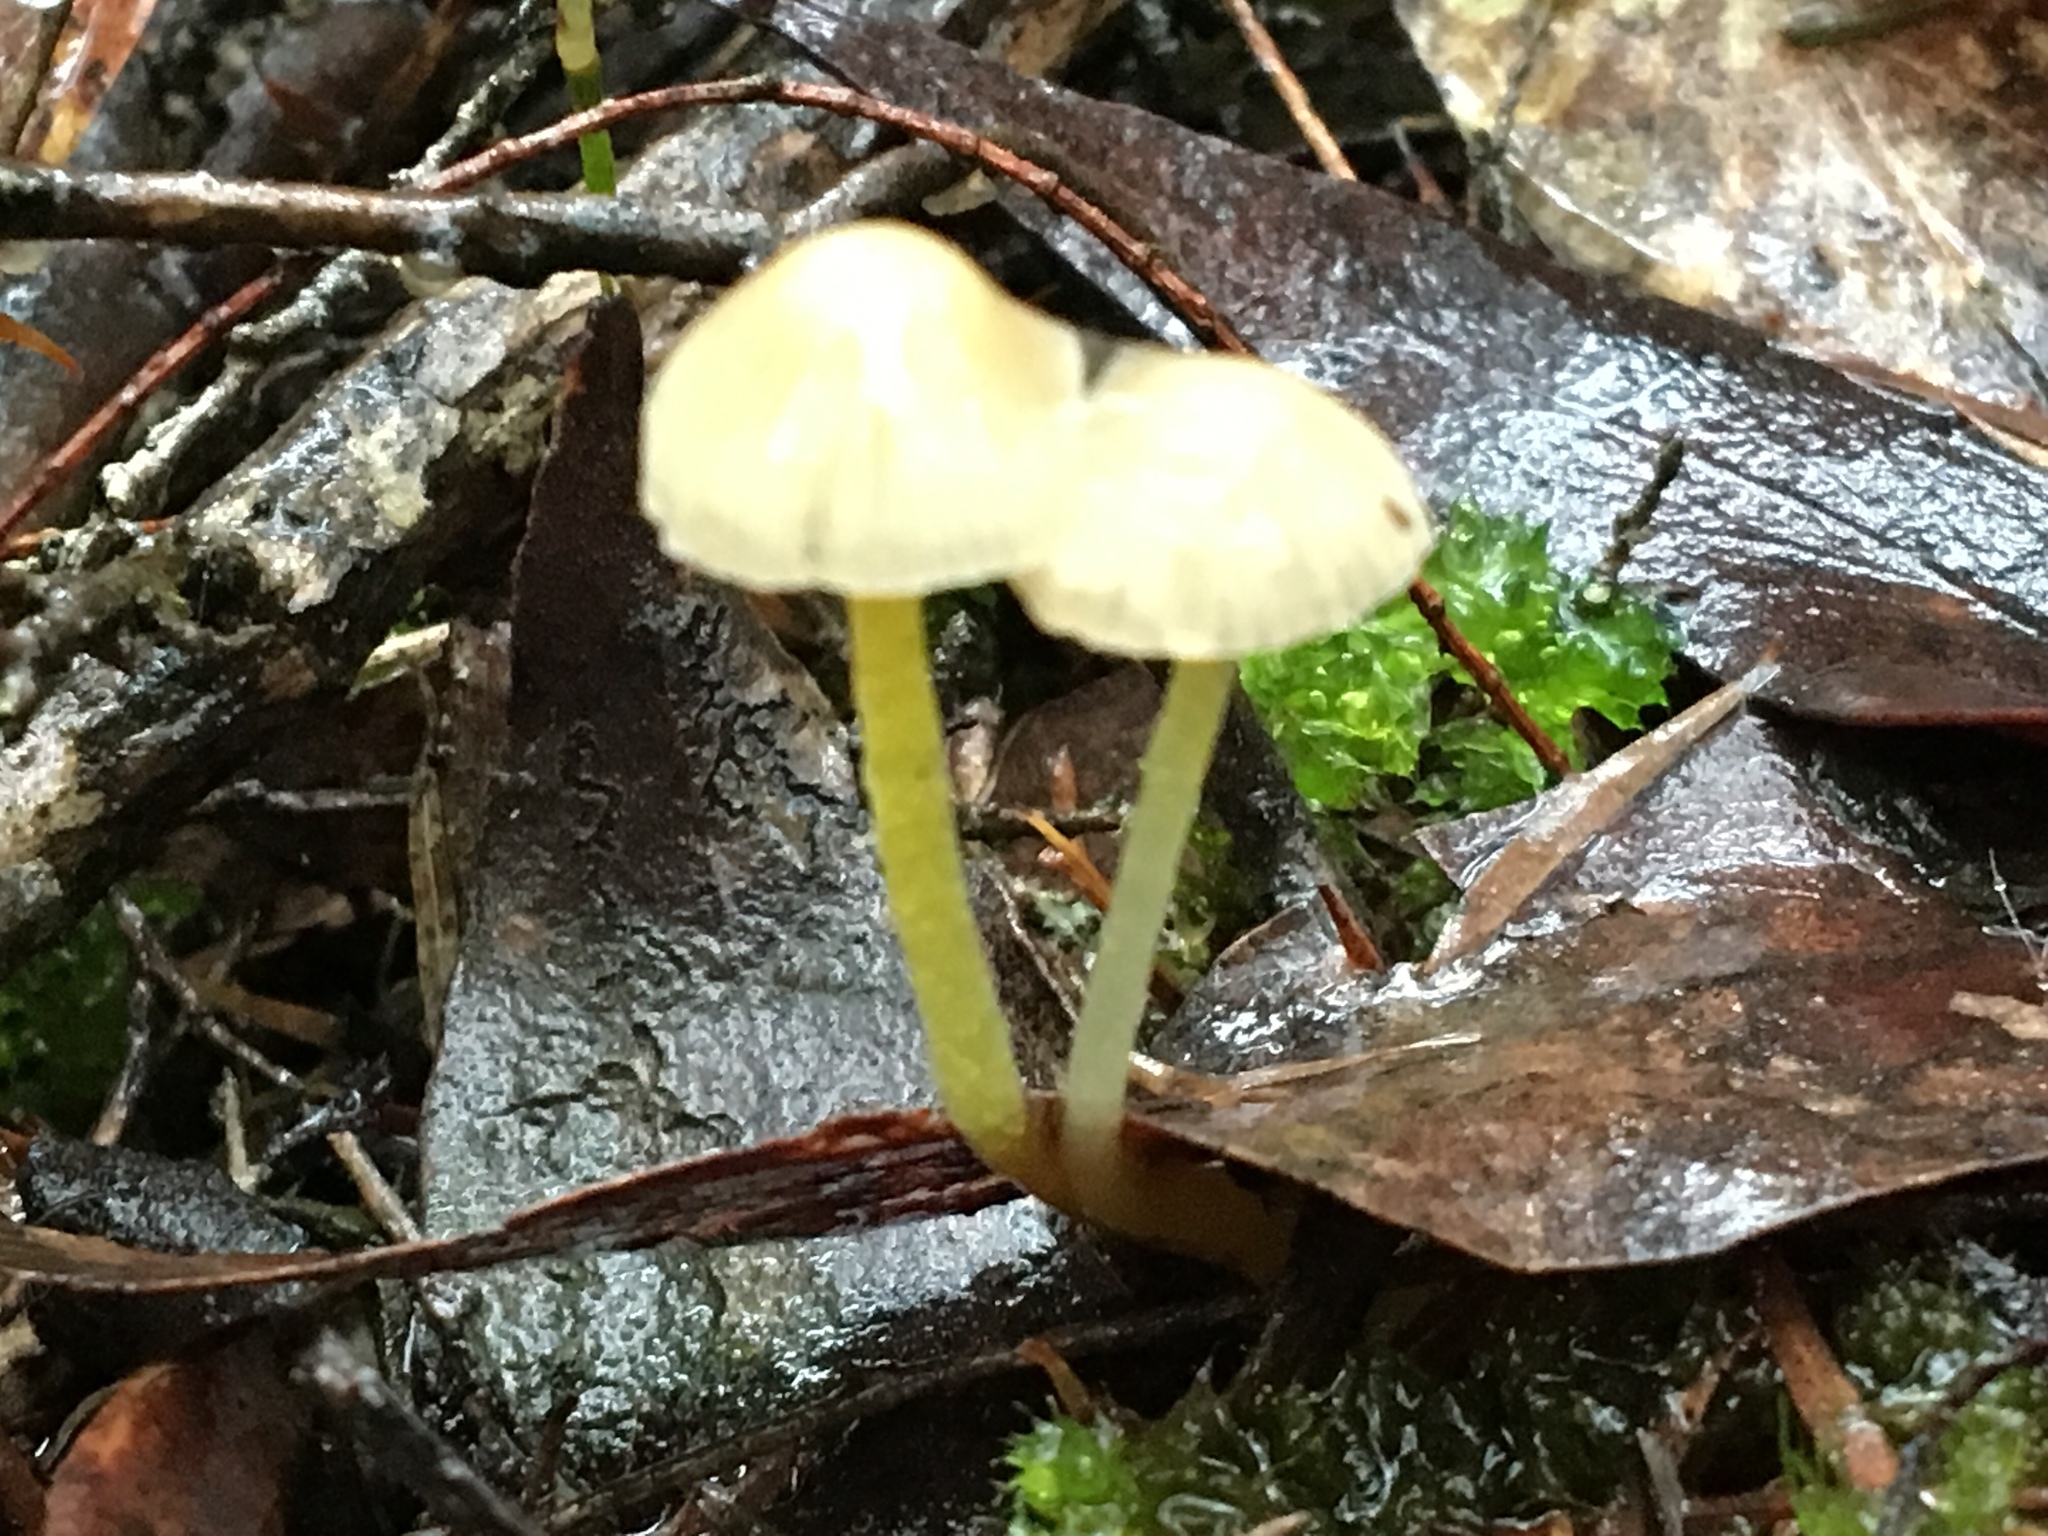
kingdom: Fungi
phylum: Basidiomycota
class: Agaricomycetes
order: Agaricales
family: Mycenaceae
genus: Mycena
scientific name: Mycena epipterygia
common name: Yellowleg bonnet
